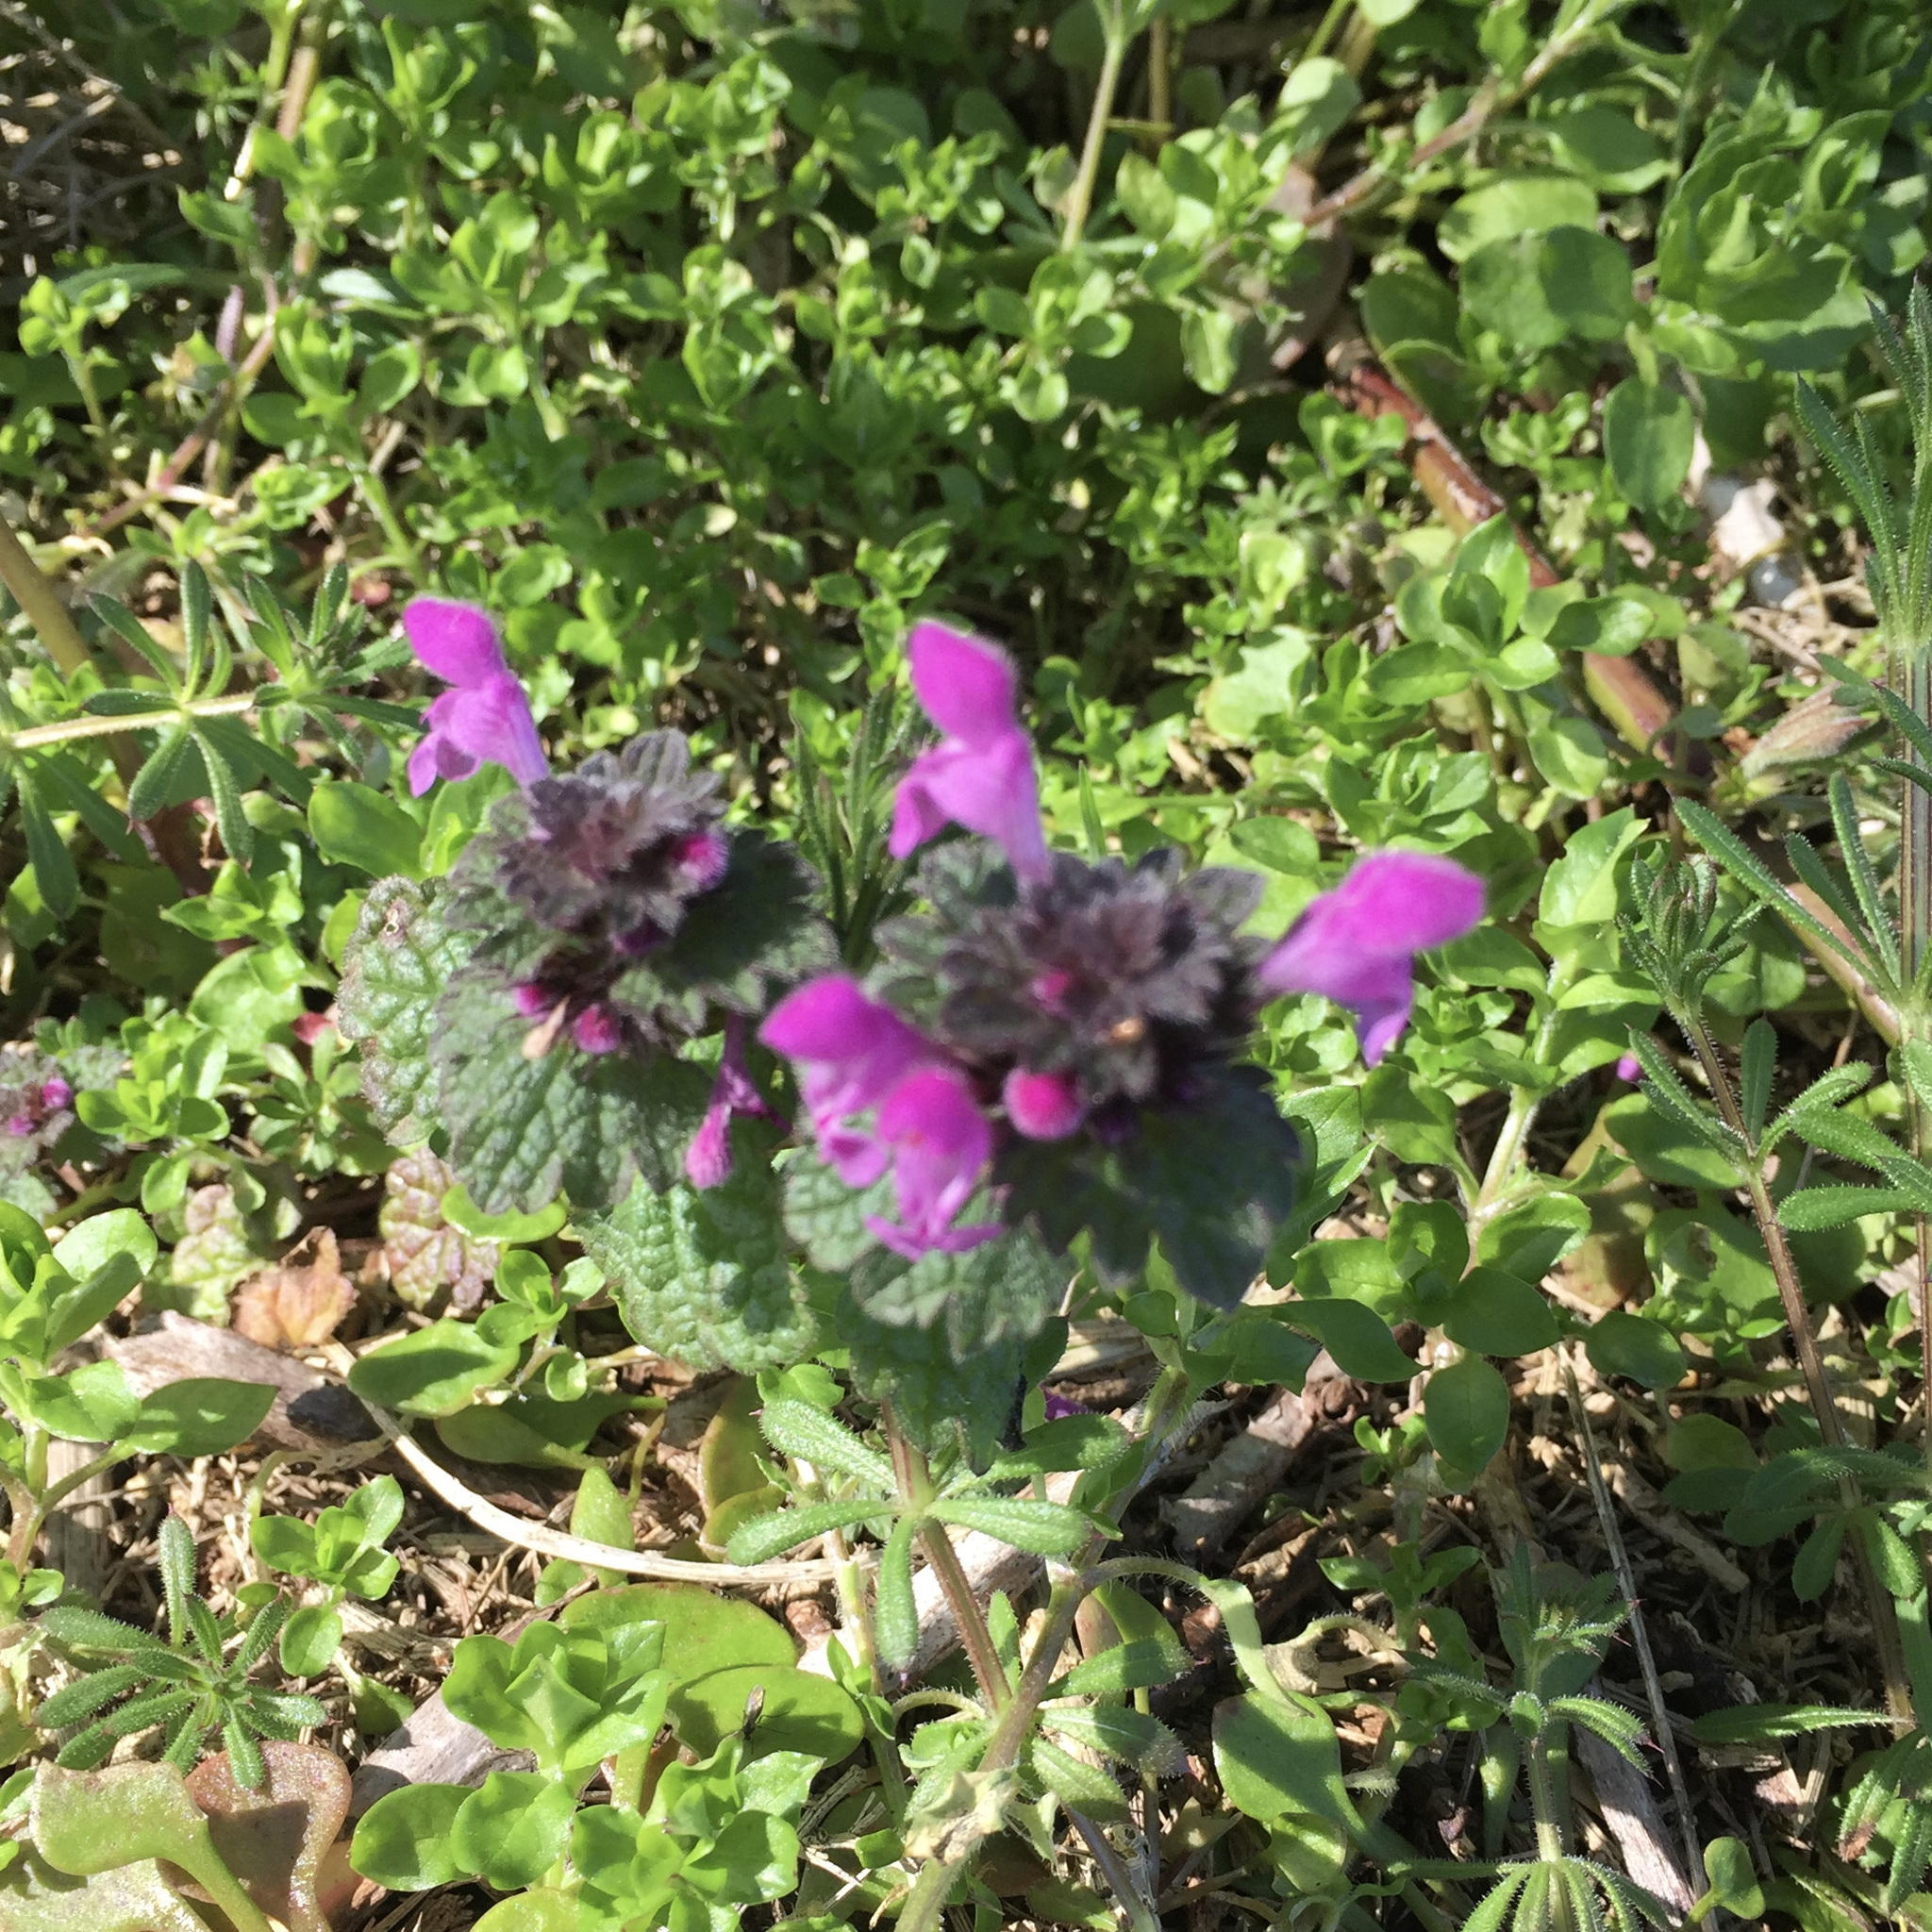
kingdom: Plantae
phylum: Tracheophyta
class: Magnoliopsida
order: Lamiales
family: Lamiaceae
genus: Lamium
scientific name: Lamium purpureum
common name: Red dead-nettle
